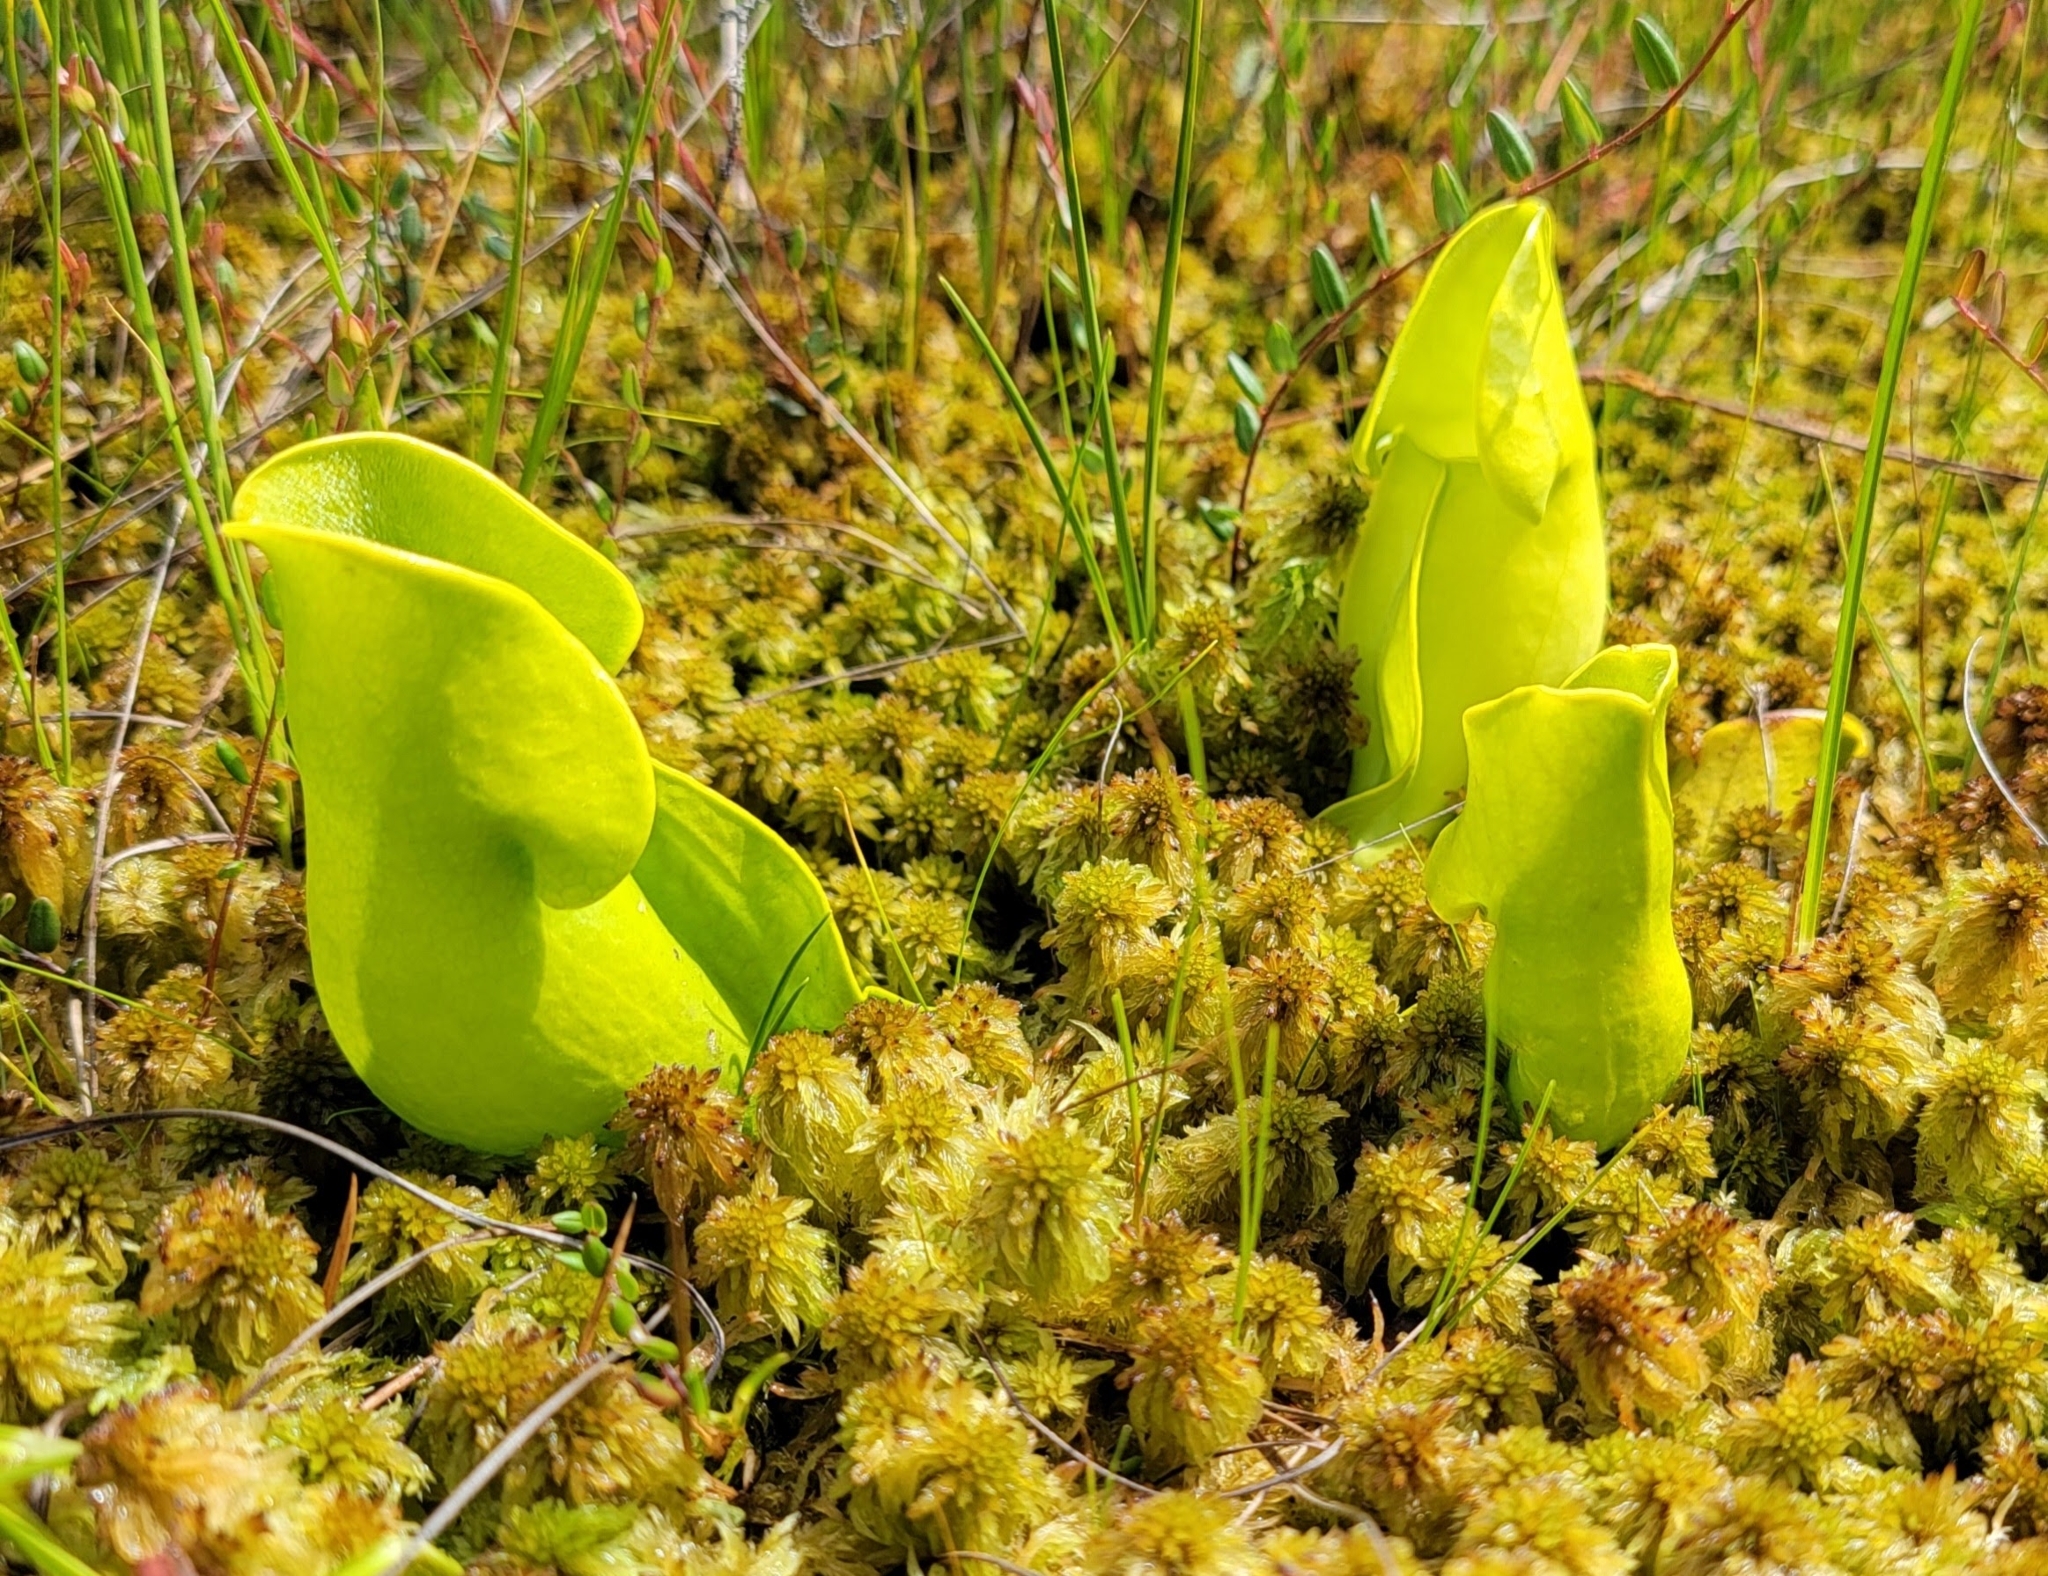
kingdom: Plantae
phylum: Tracheophyta
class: Magnoliopsida
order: Ericales
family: Sarraceniaceae
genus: Sarracenia
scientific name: Sarracenia purpurea
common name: Pitcherplant
